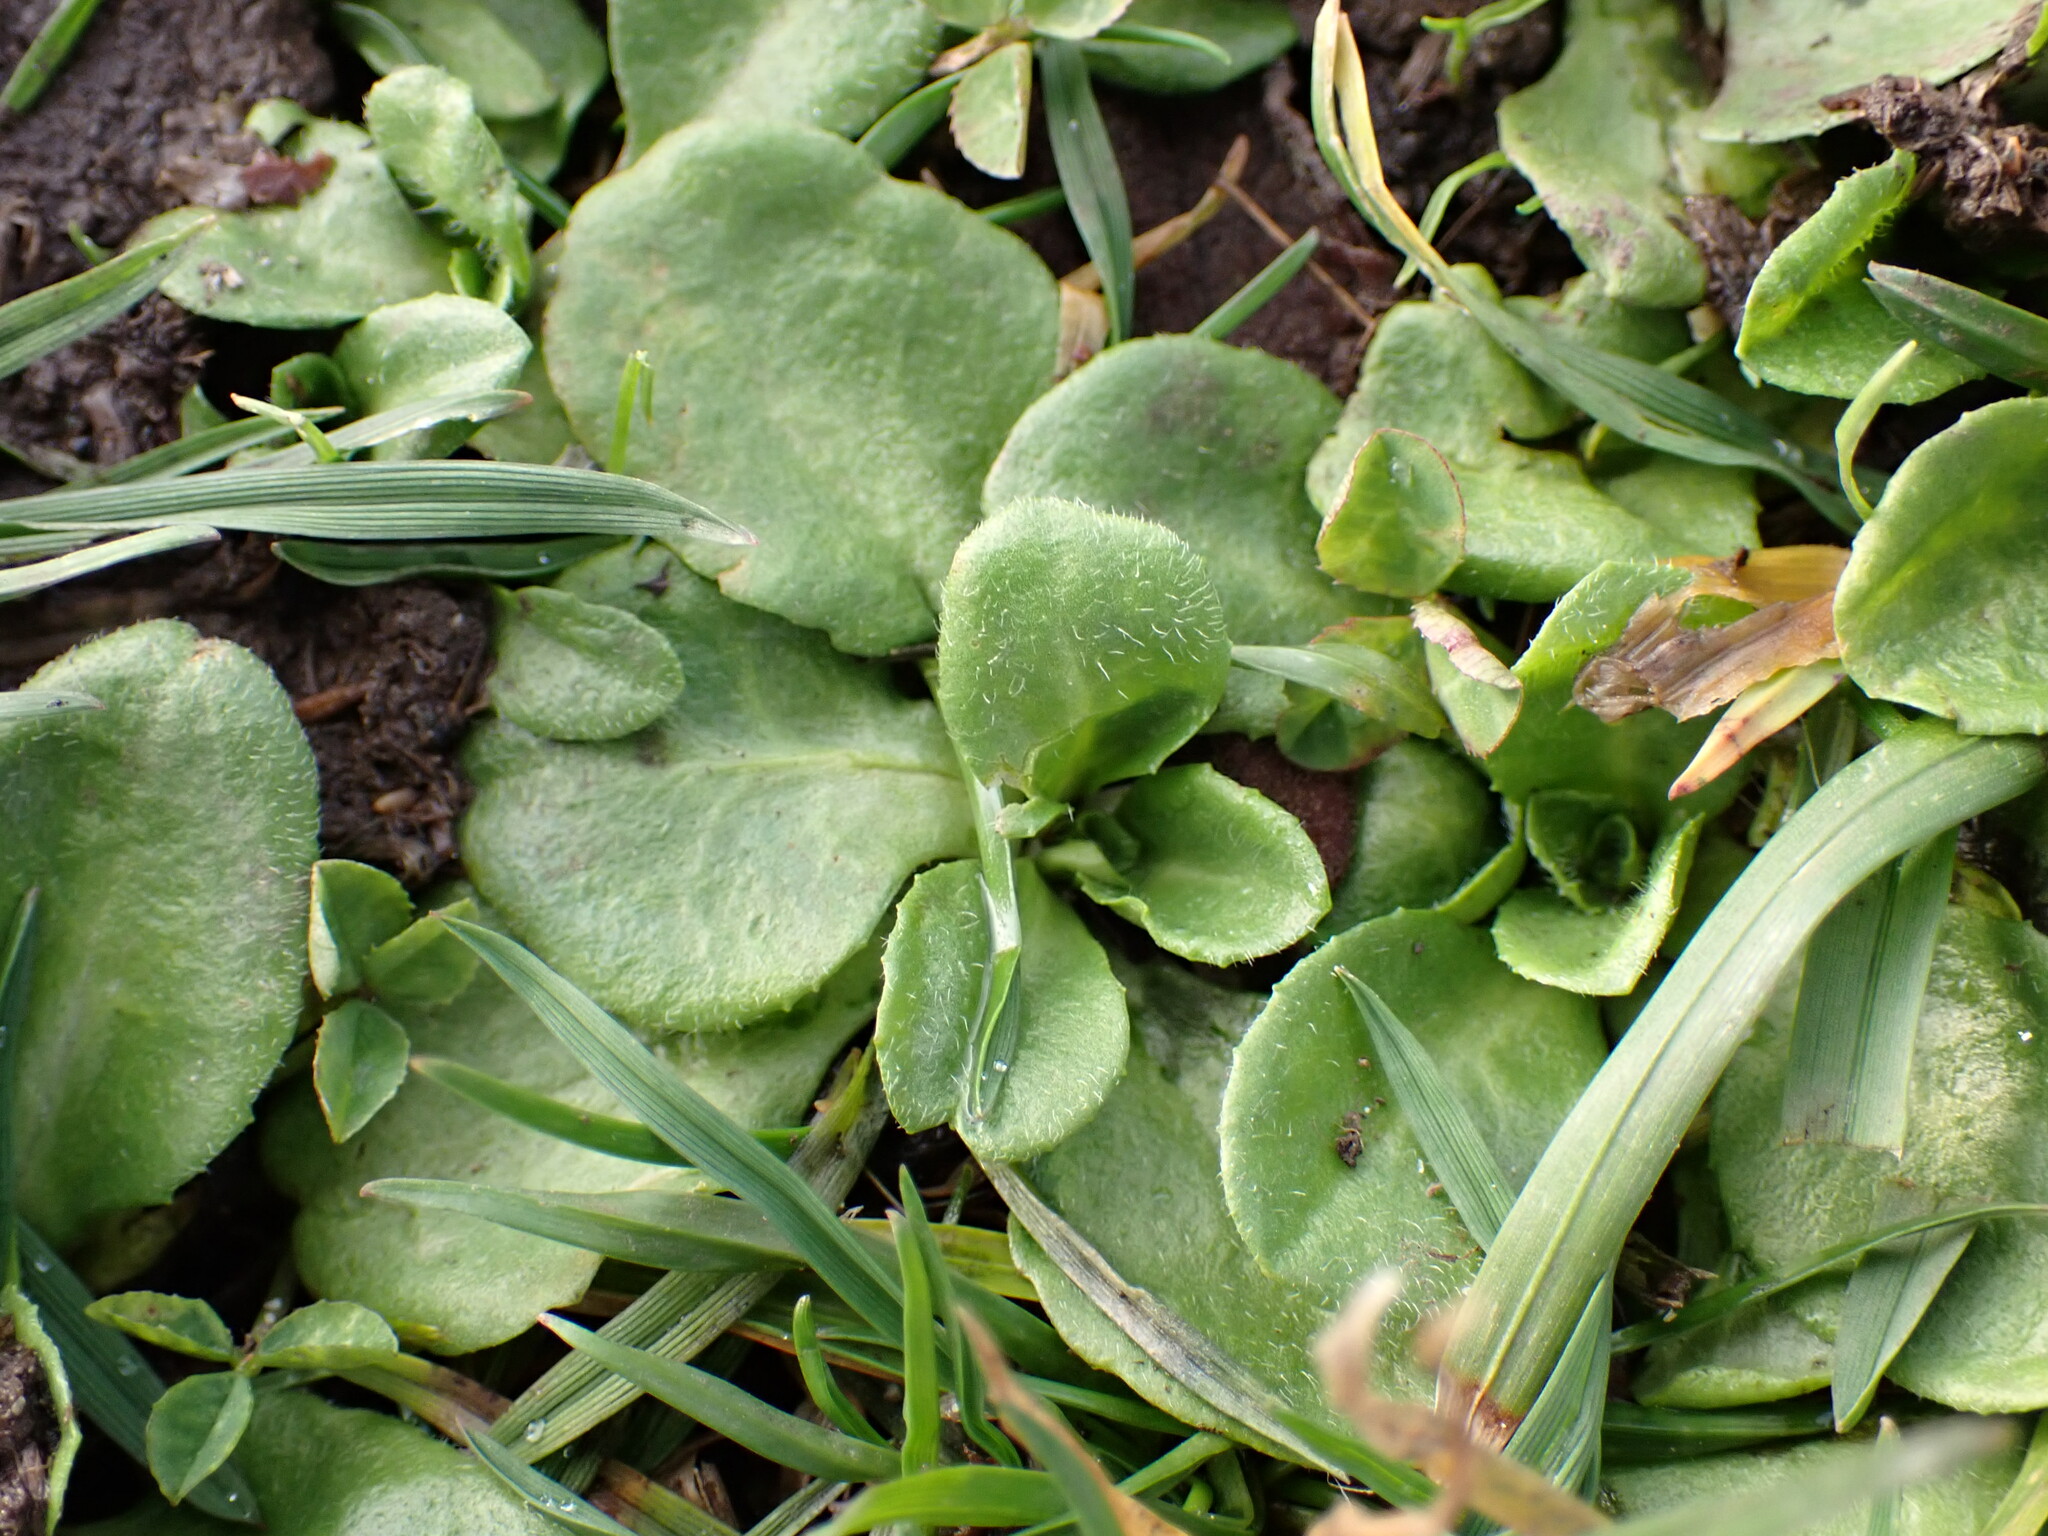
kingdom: Plantae
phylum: Tracheophyta
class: Magnoliopsida
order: Asterales
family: Asteraceae
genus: Bellis
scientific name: Bellis perennis
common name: Lawndaisy
